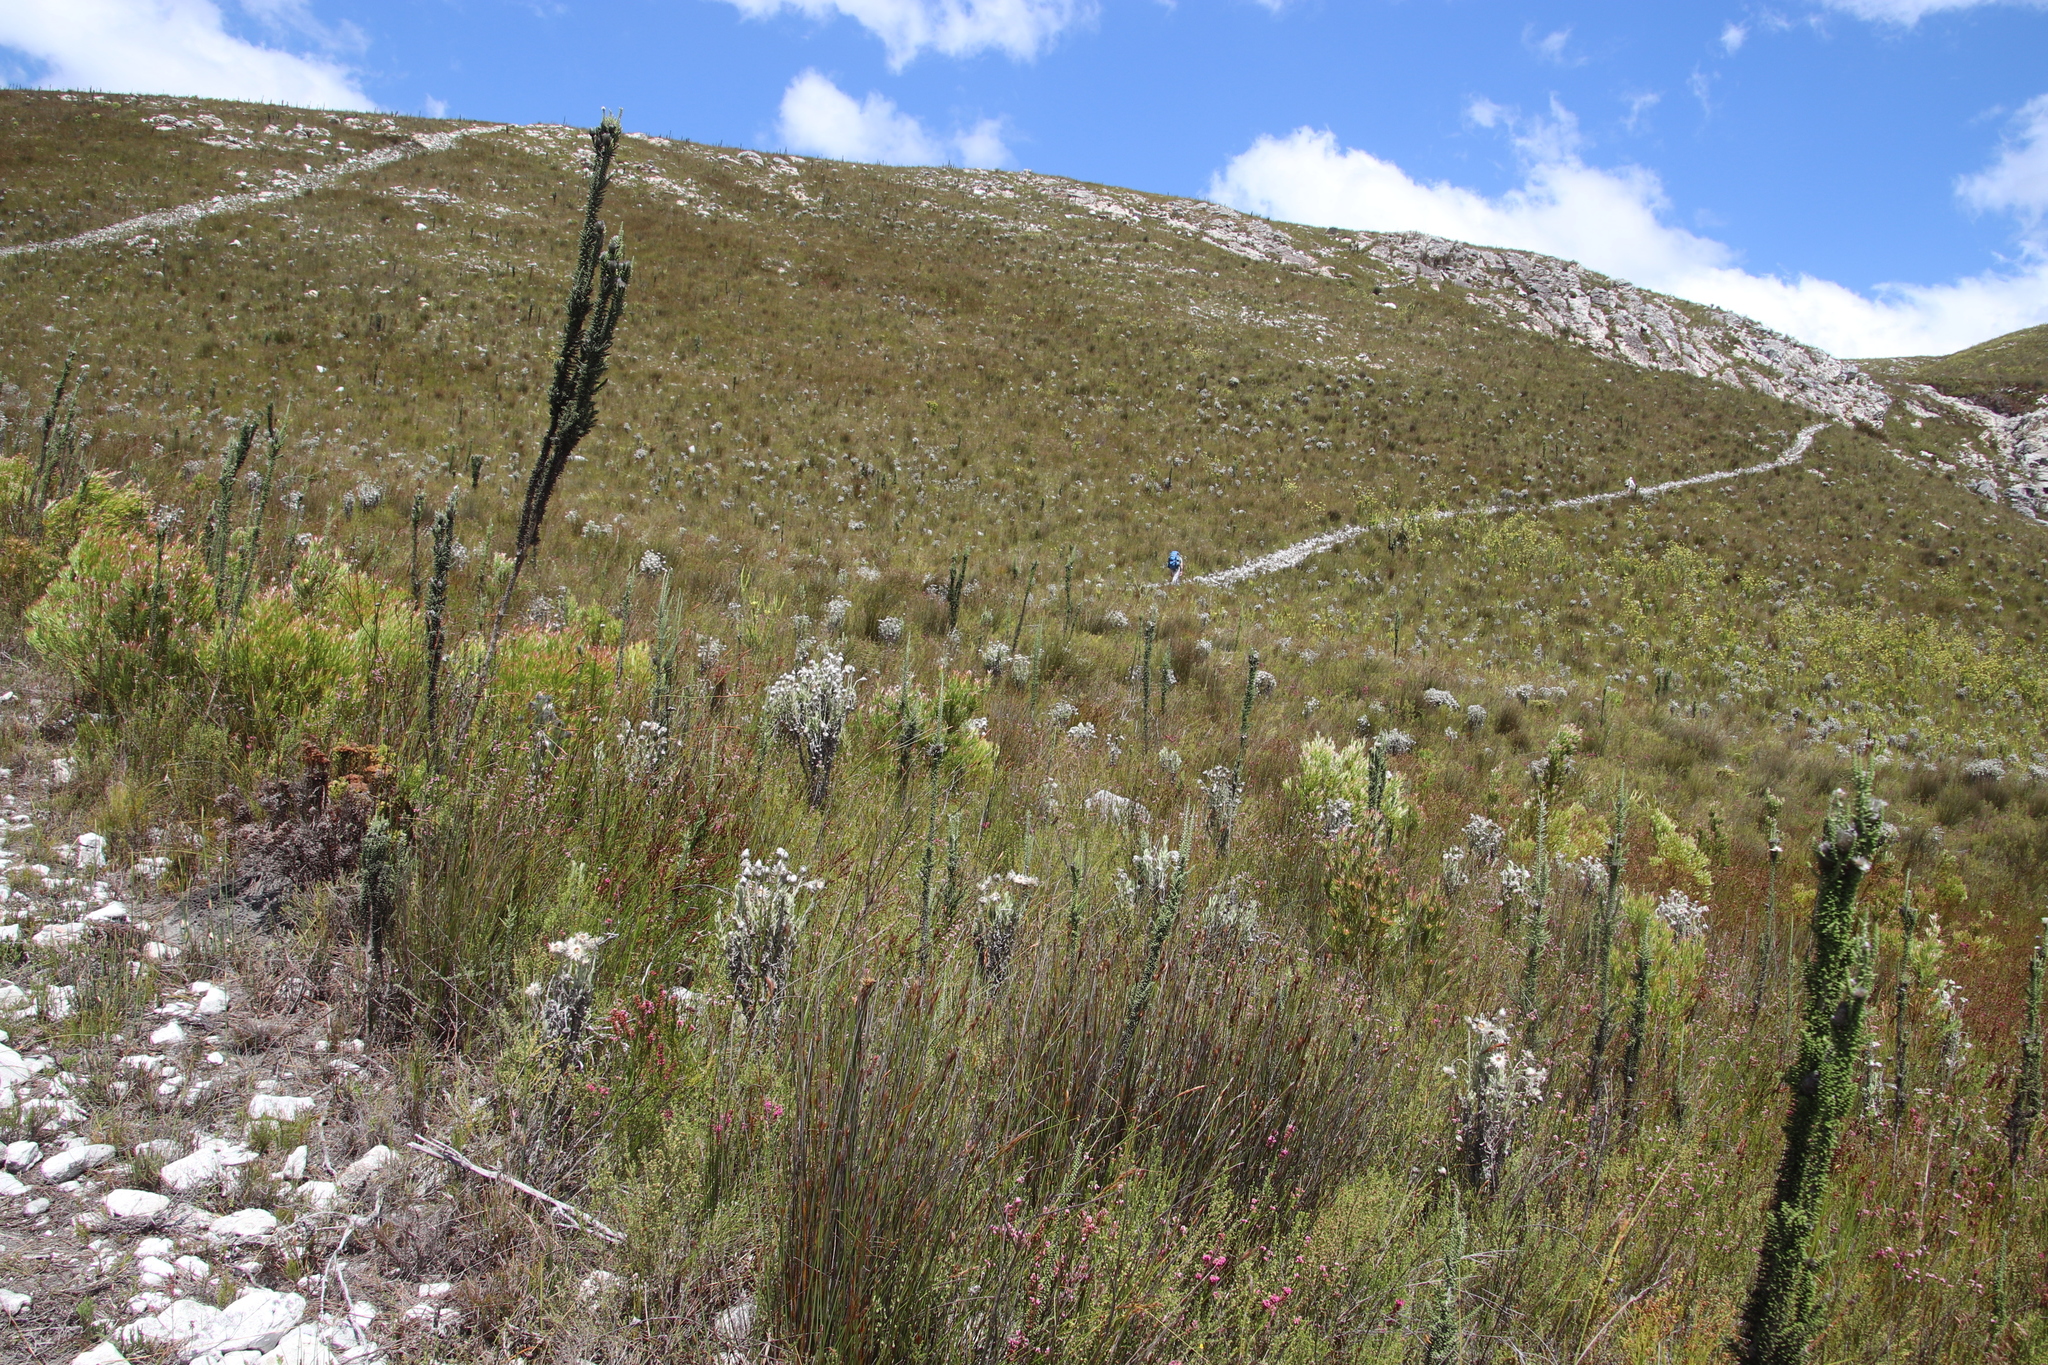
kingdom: Plantae
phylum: Tracheophyta
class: Magnoliopsida
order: Asterales
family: Asteraceae
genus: Phaenocoma
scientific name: Phaenocoma prolifera
